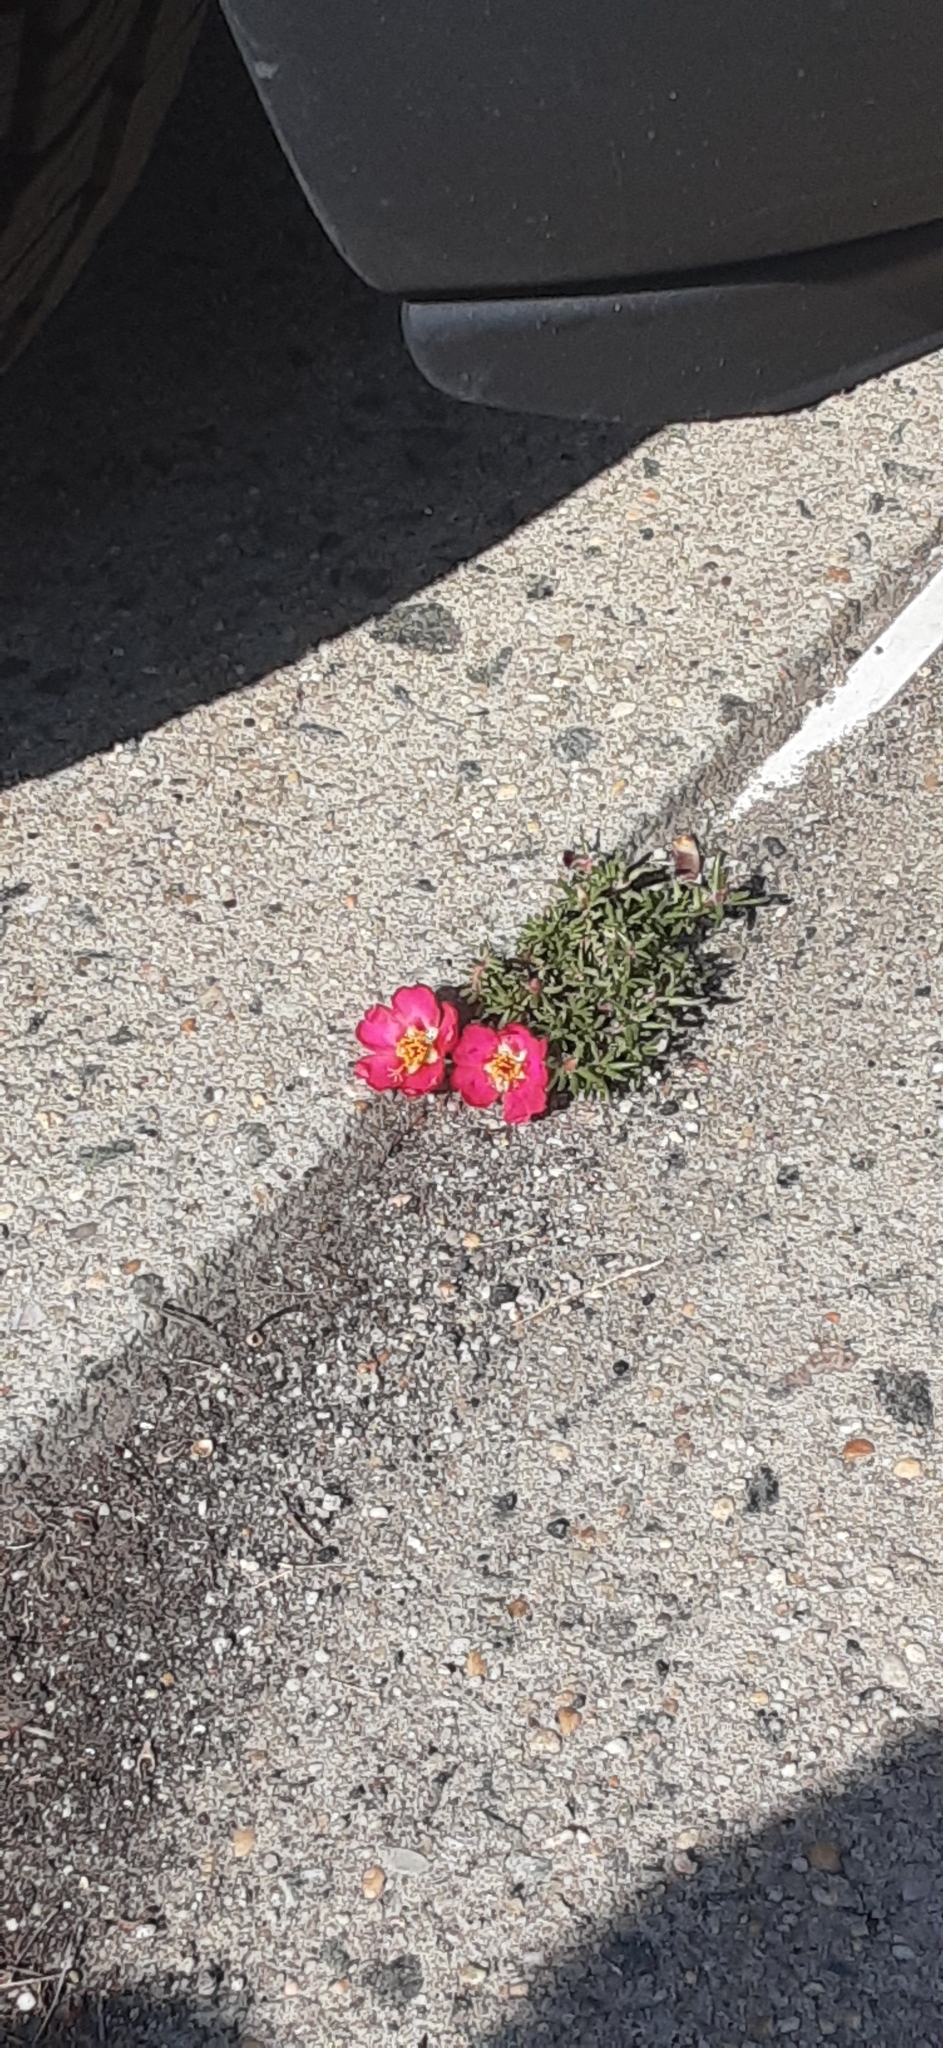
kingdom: Plantae
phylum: Tracheophyta
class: Magnoliopsida
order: Caryophyllales
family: Portulacaceae
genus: Portulaca
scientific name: Portulaca grandiflora
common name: Moss-rose
